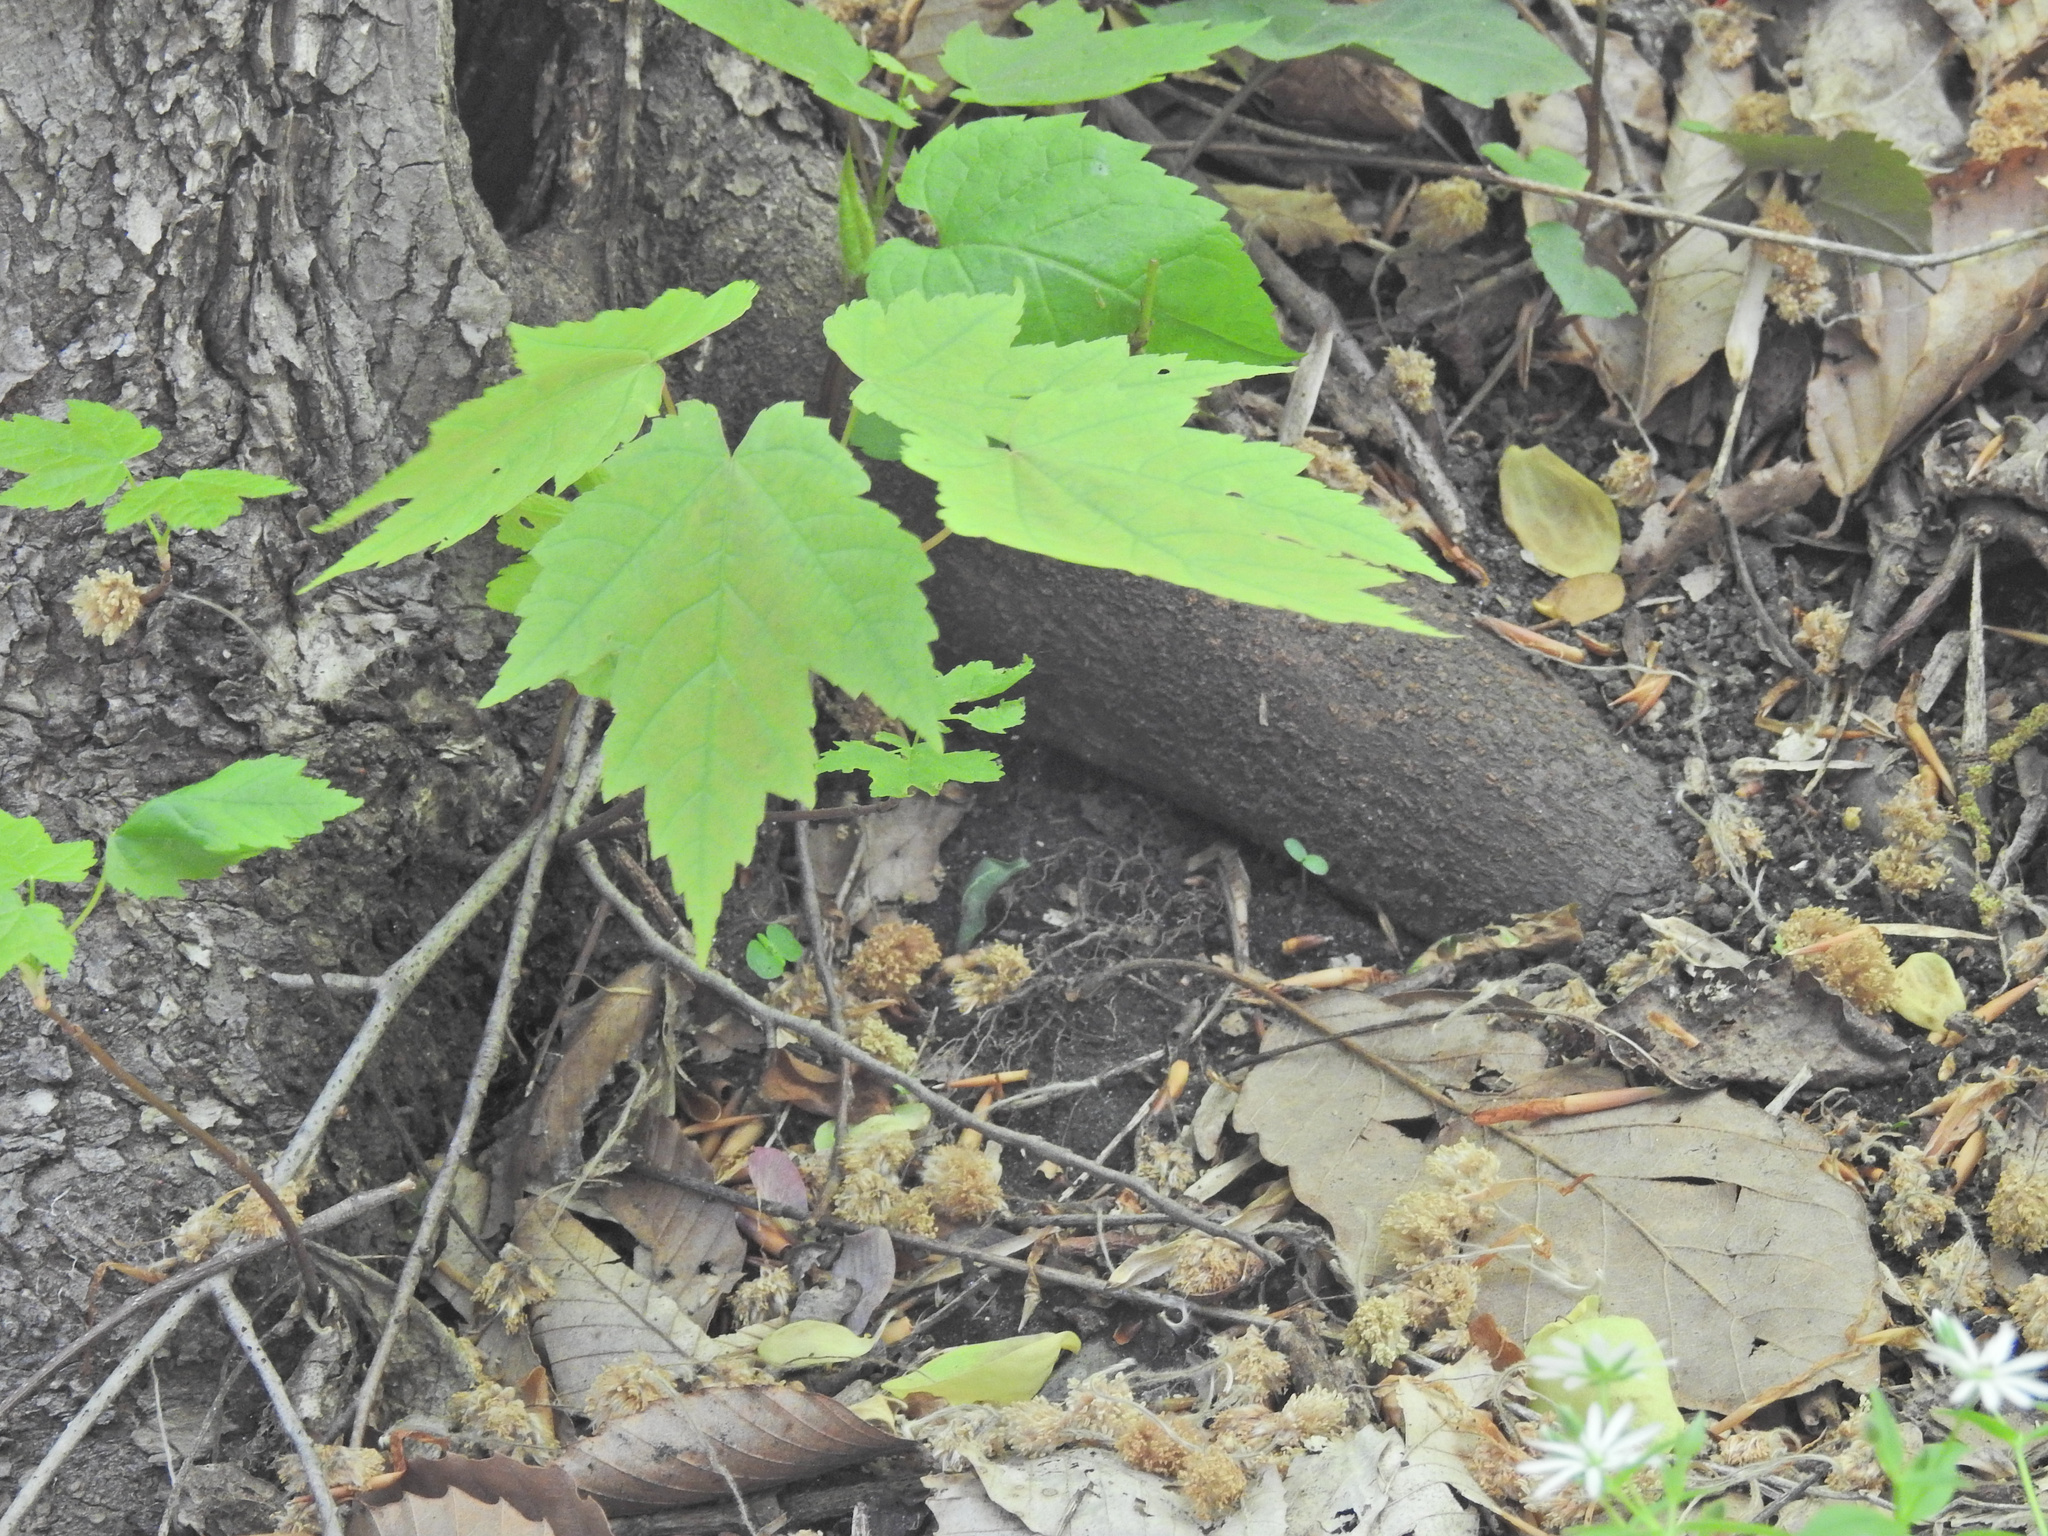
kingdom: Plantae
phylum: Tracheophyta
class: Magnoliopsida
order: Sapindales
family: Sapindaceae
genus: Acer
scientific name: Acer rubrum
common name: Red maple
